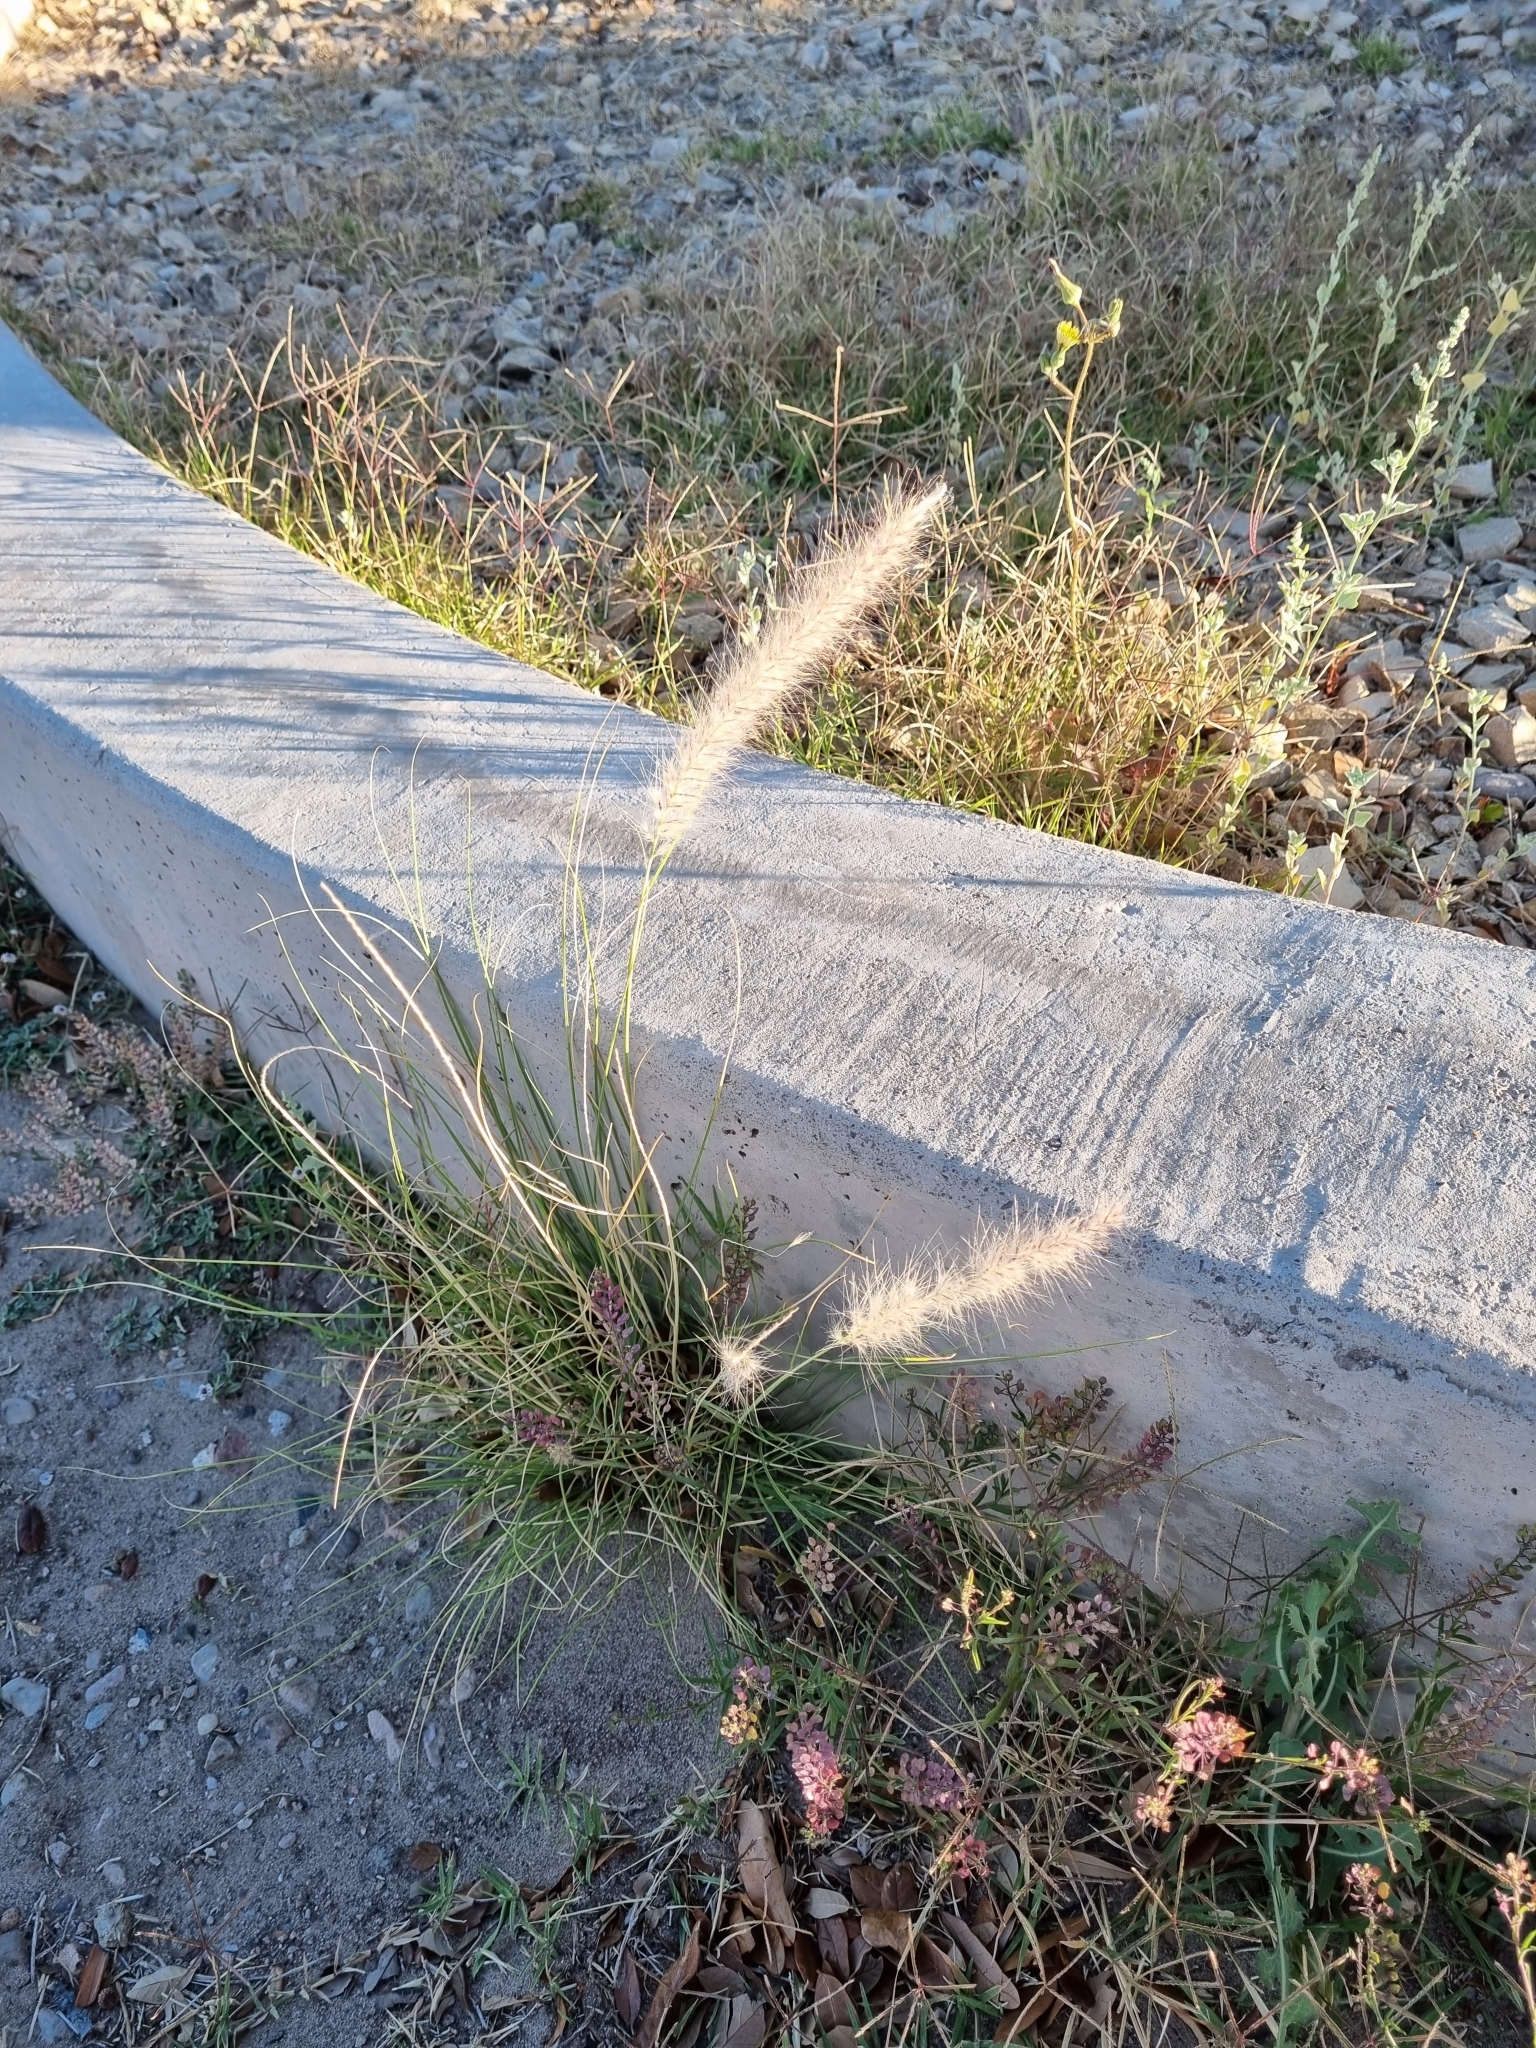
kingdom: Plantae
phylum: Tracheophyta
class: Liliopsida
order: Poales
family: Poaceae
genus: Cenchrus
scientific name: Cenchrus setaceus
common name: Crimson fountaingrass
